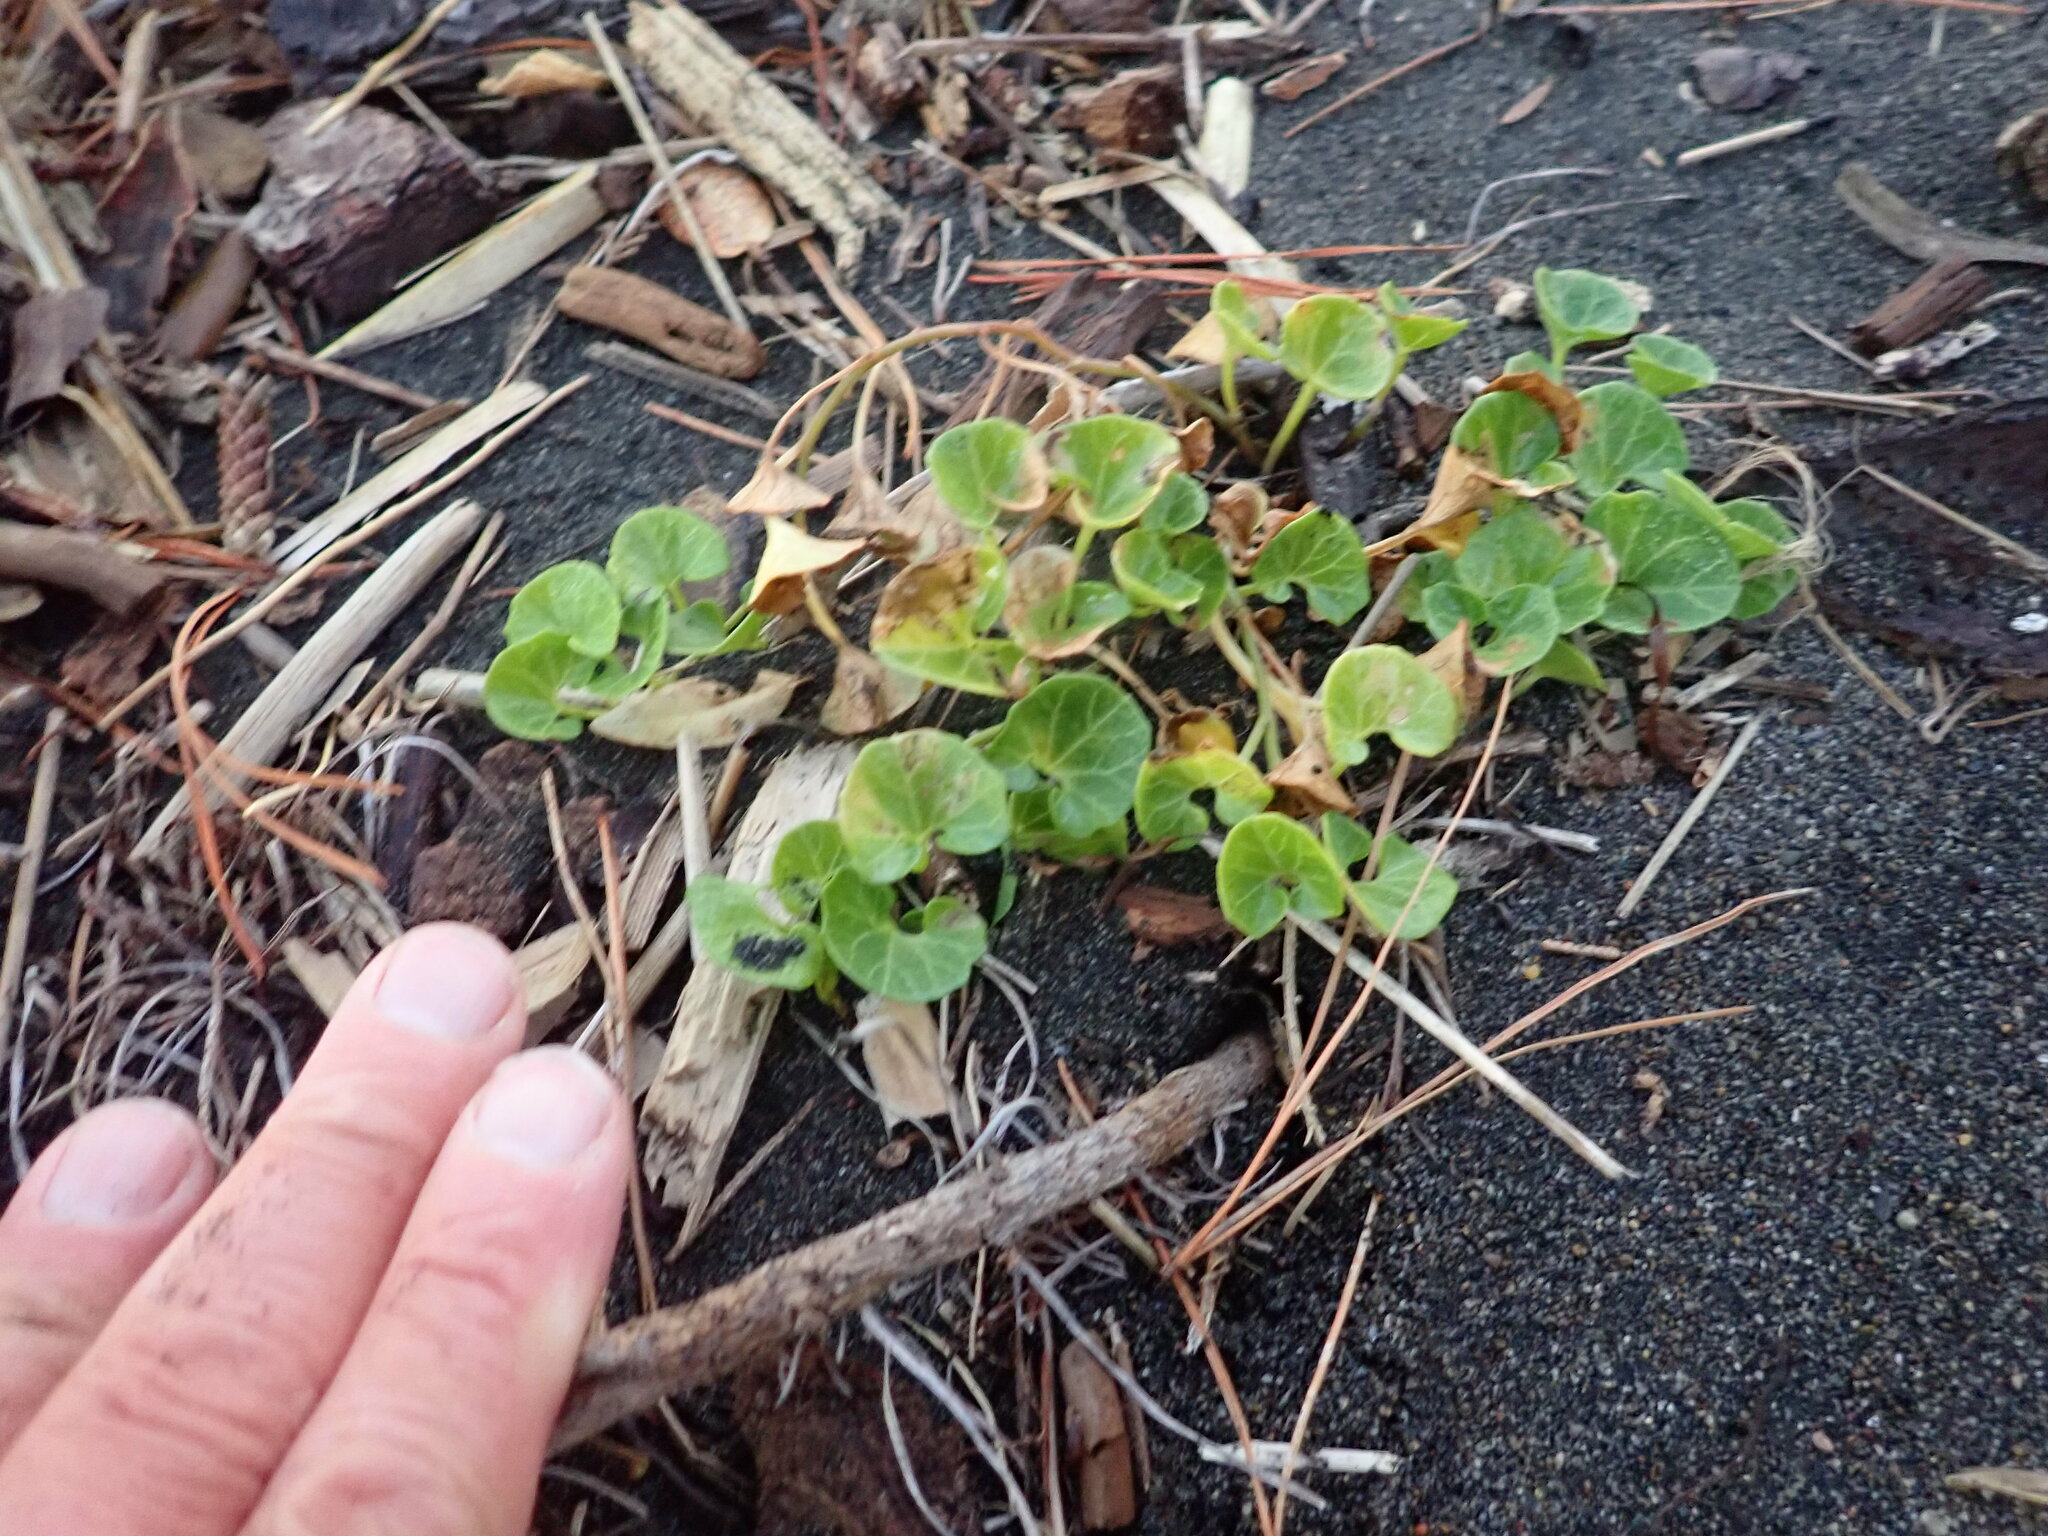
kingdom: Plantae
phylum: Tracheophyta
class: Magnoliopsida
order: Solanales
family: Convolvulaceae
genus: Calystegia
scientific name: Calystegia soldanella
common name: Sea bindweed
